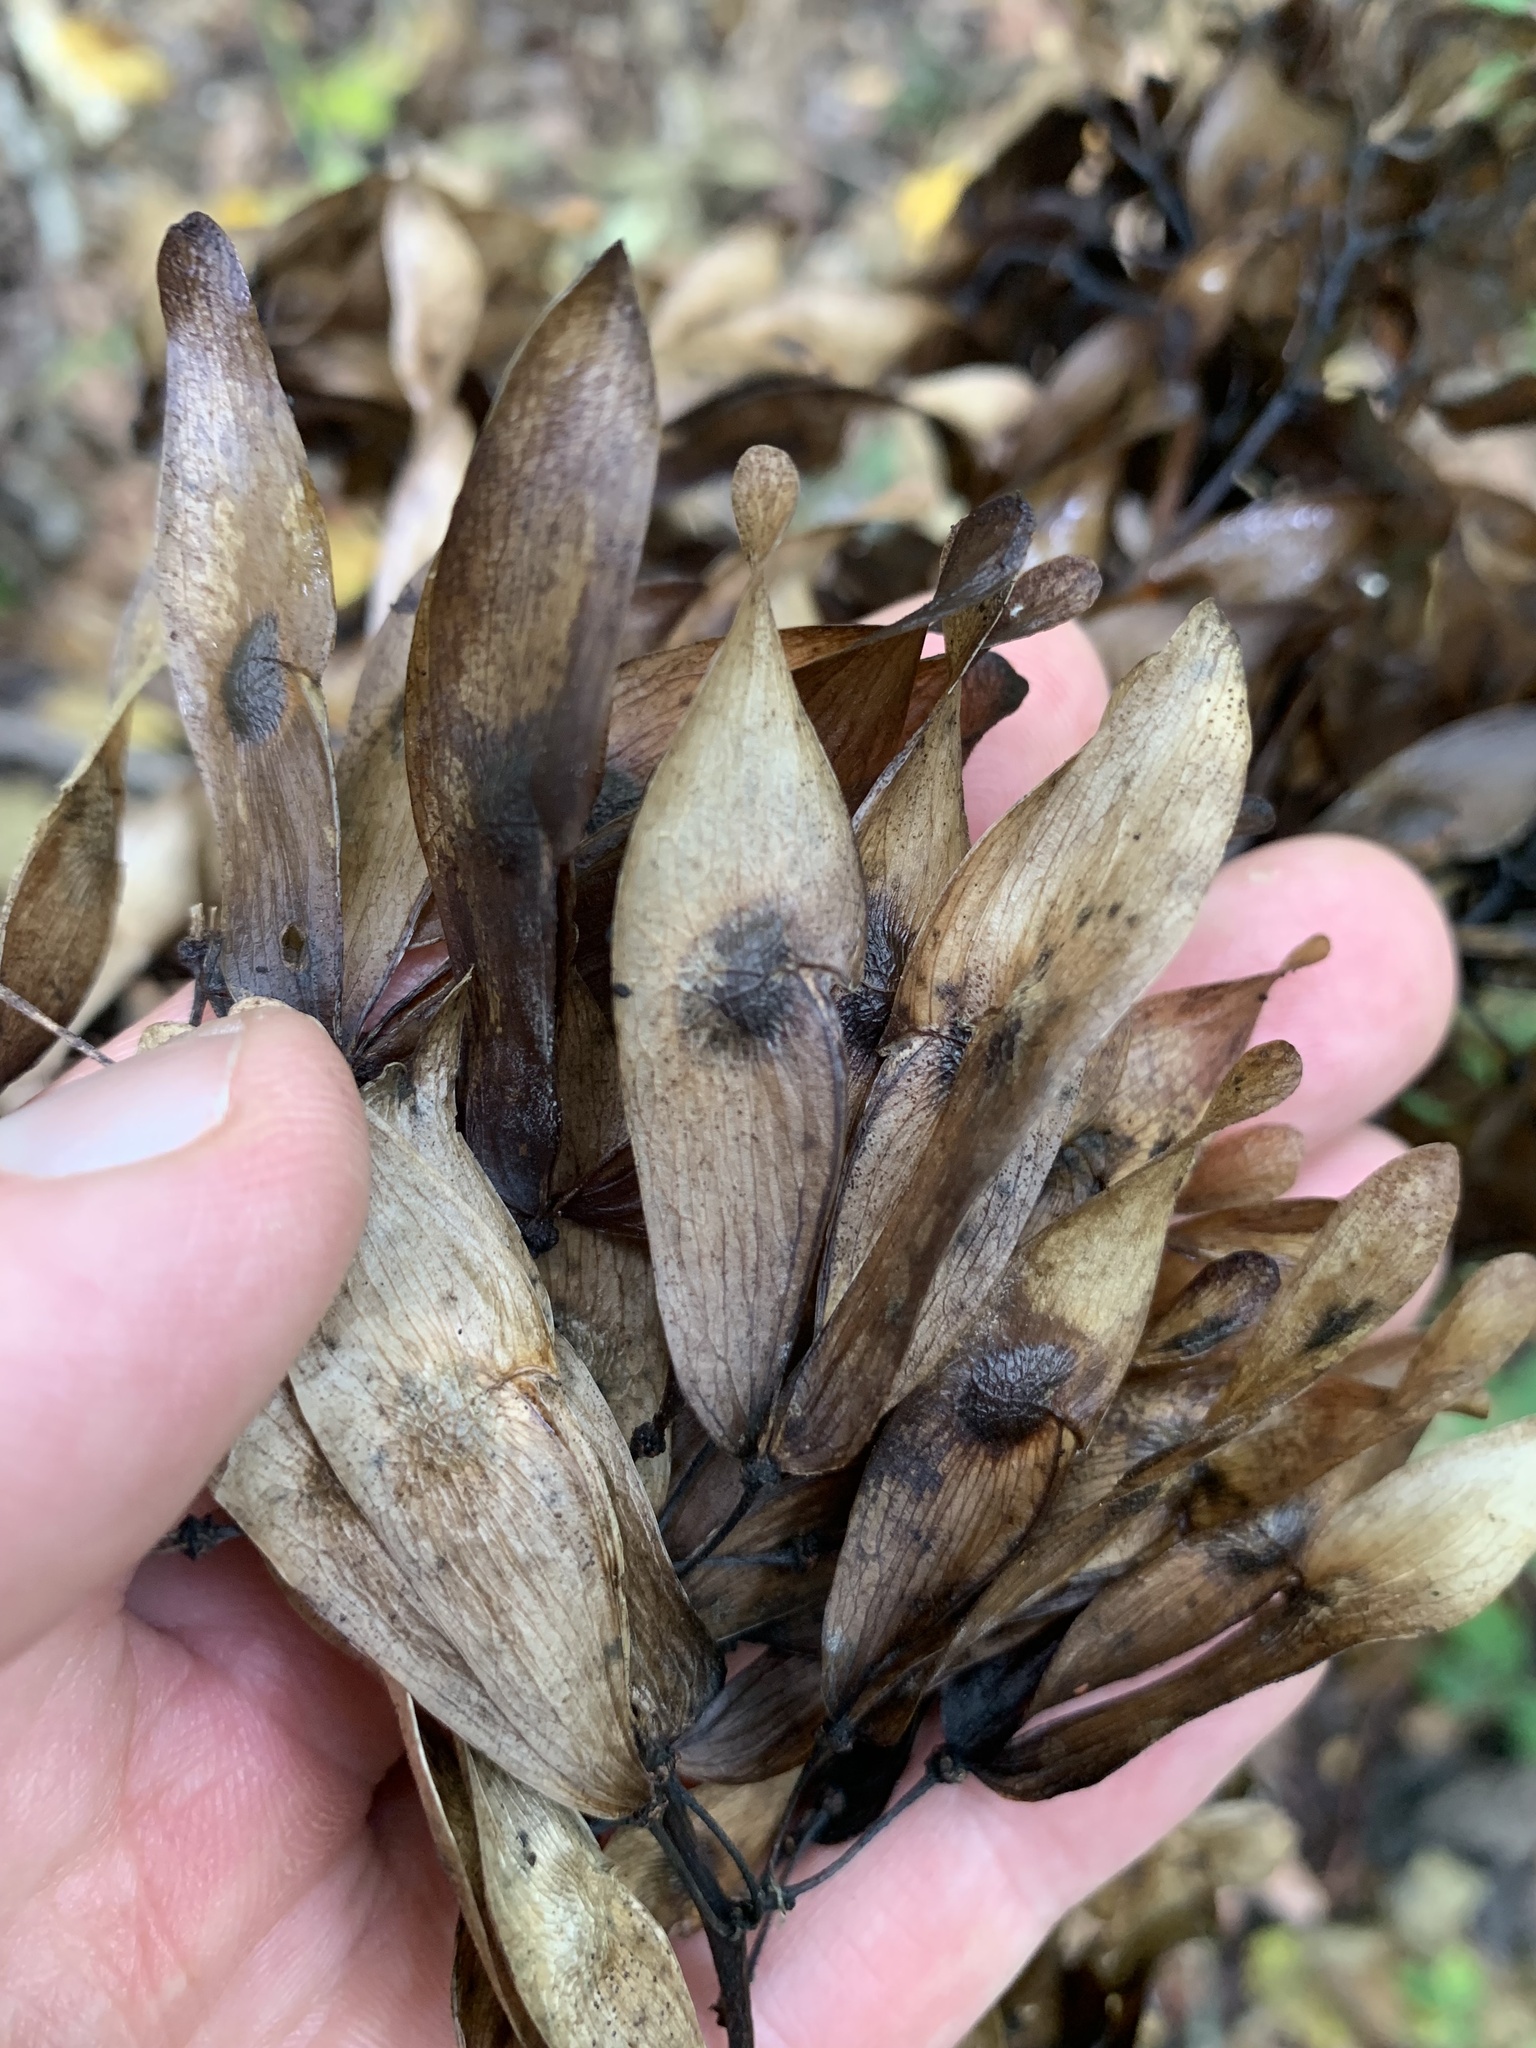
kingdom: Plantae
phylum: Tracheophyta
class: Magnoliopsida
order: Sapindales
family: Simaroubaceae
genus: Ailanthus
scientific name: Ailanthus altissima
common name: Tree-of-heaven
